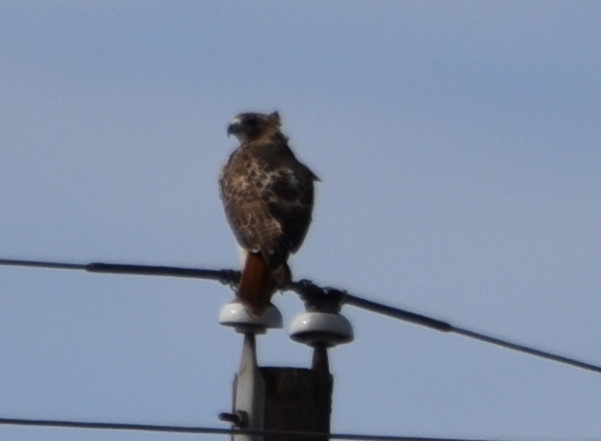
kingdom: Animalia
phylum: Chordata
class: Aves
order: Accipitriformes
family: Accipitridae
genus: Buteo
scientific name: Buteo jamaicensis
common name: Red-tailed hawk
